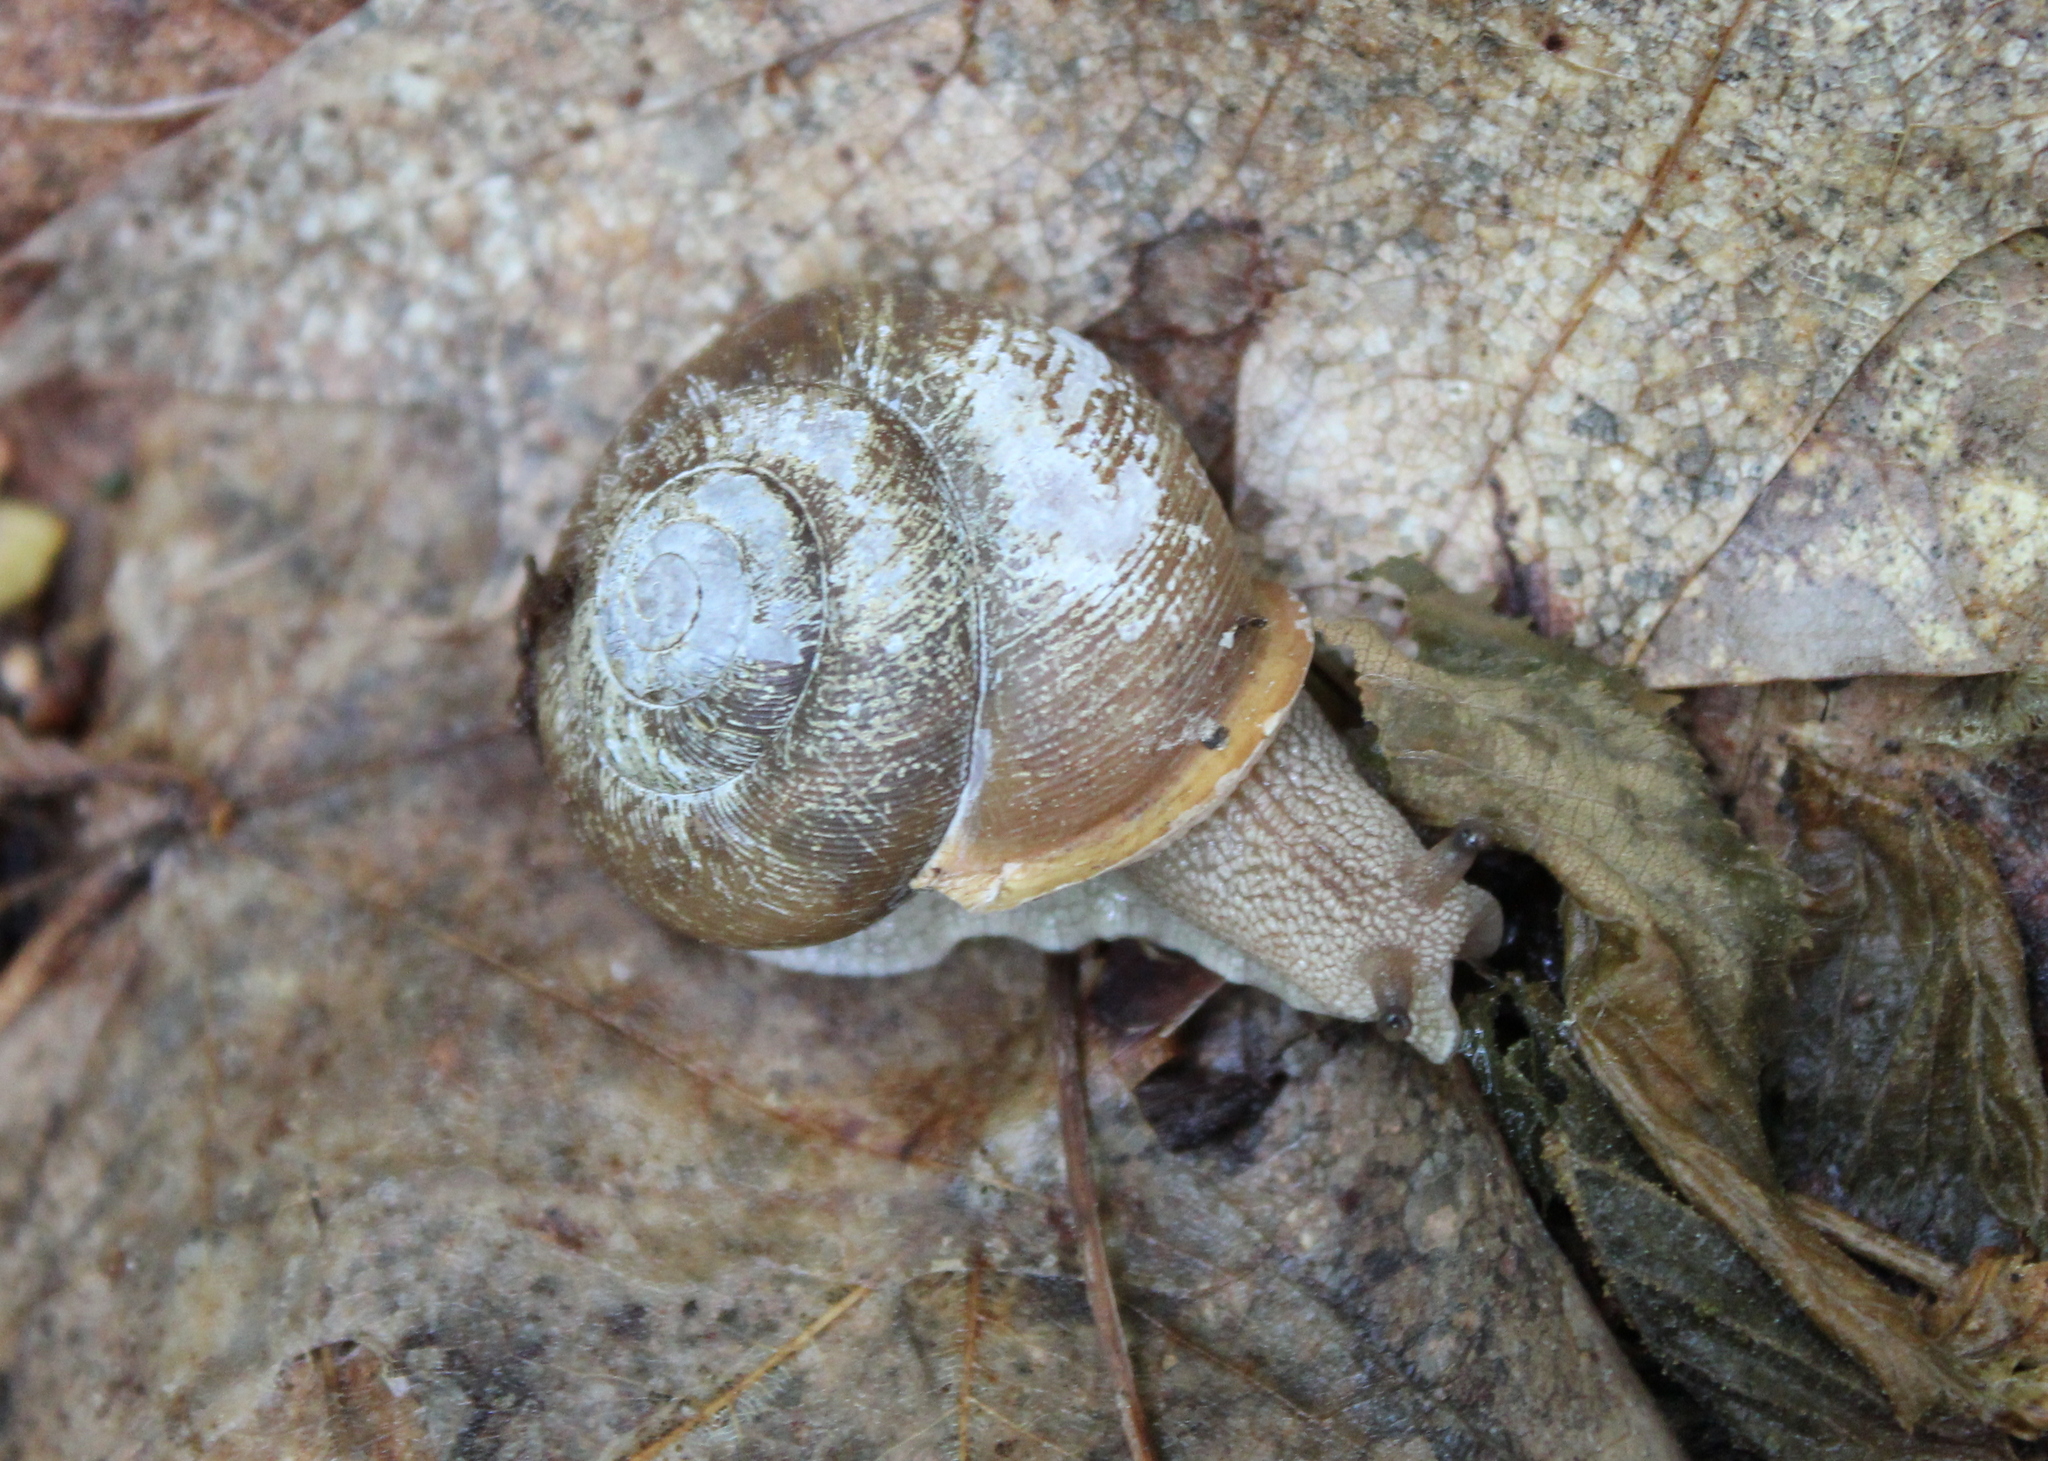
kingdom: Animalia
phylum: Mollusca
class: Gastropoda
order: Stylommatophora
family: Polygyridae
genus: Neohelix
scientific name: Neohelix albolabris
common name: Eastern whitelip
